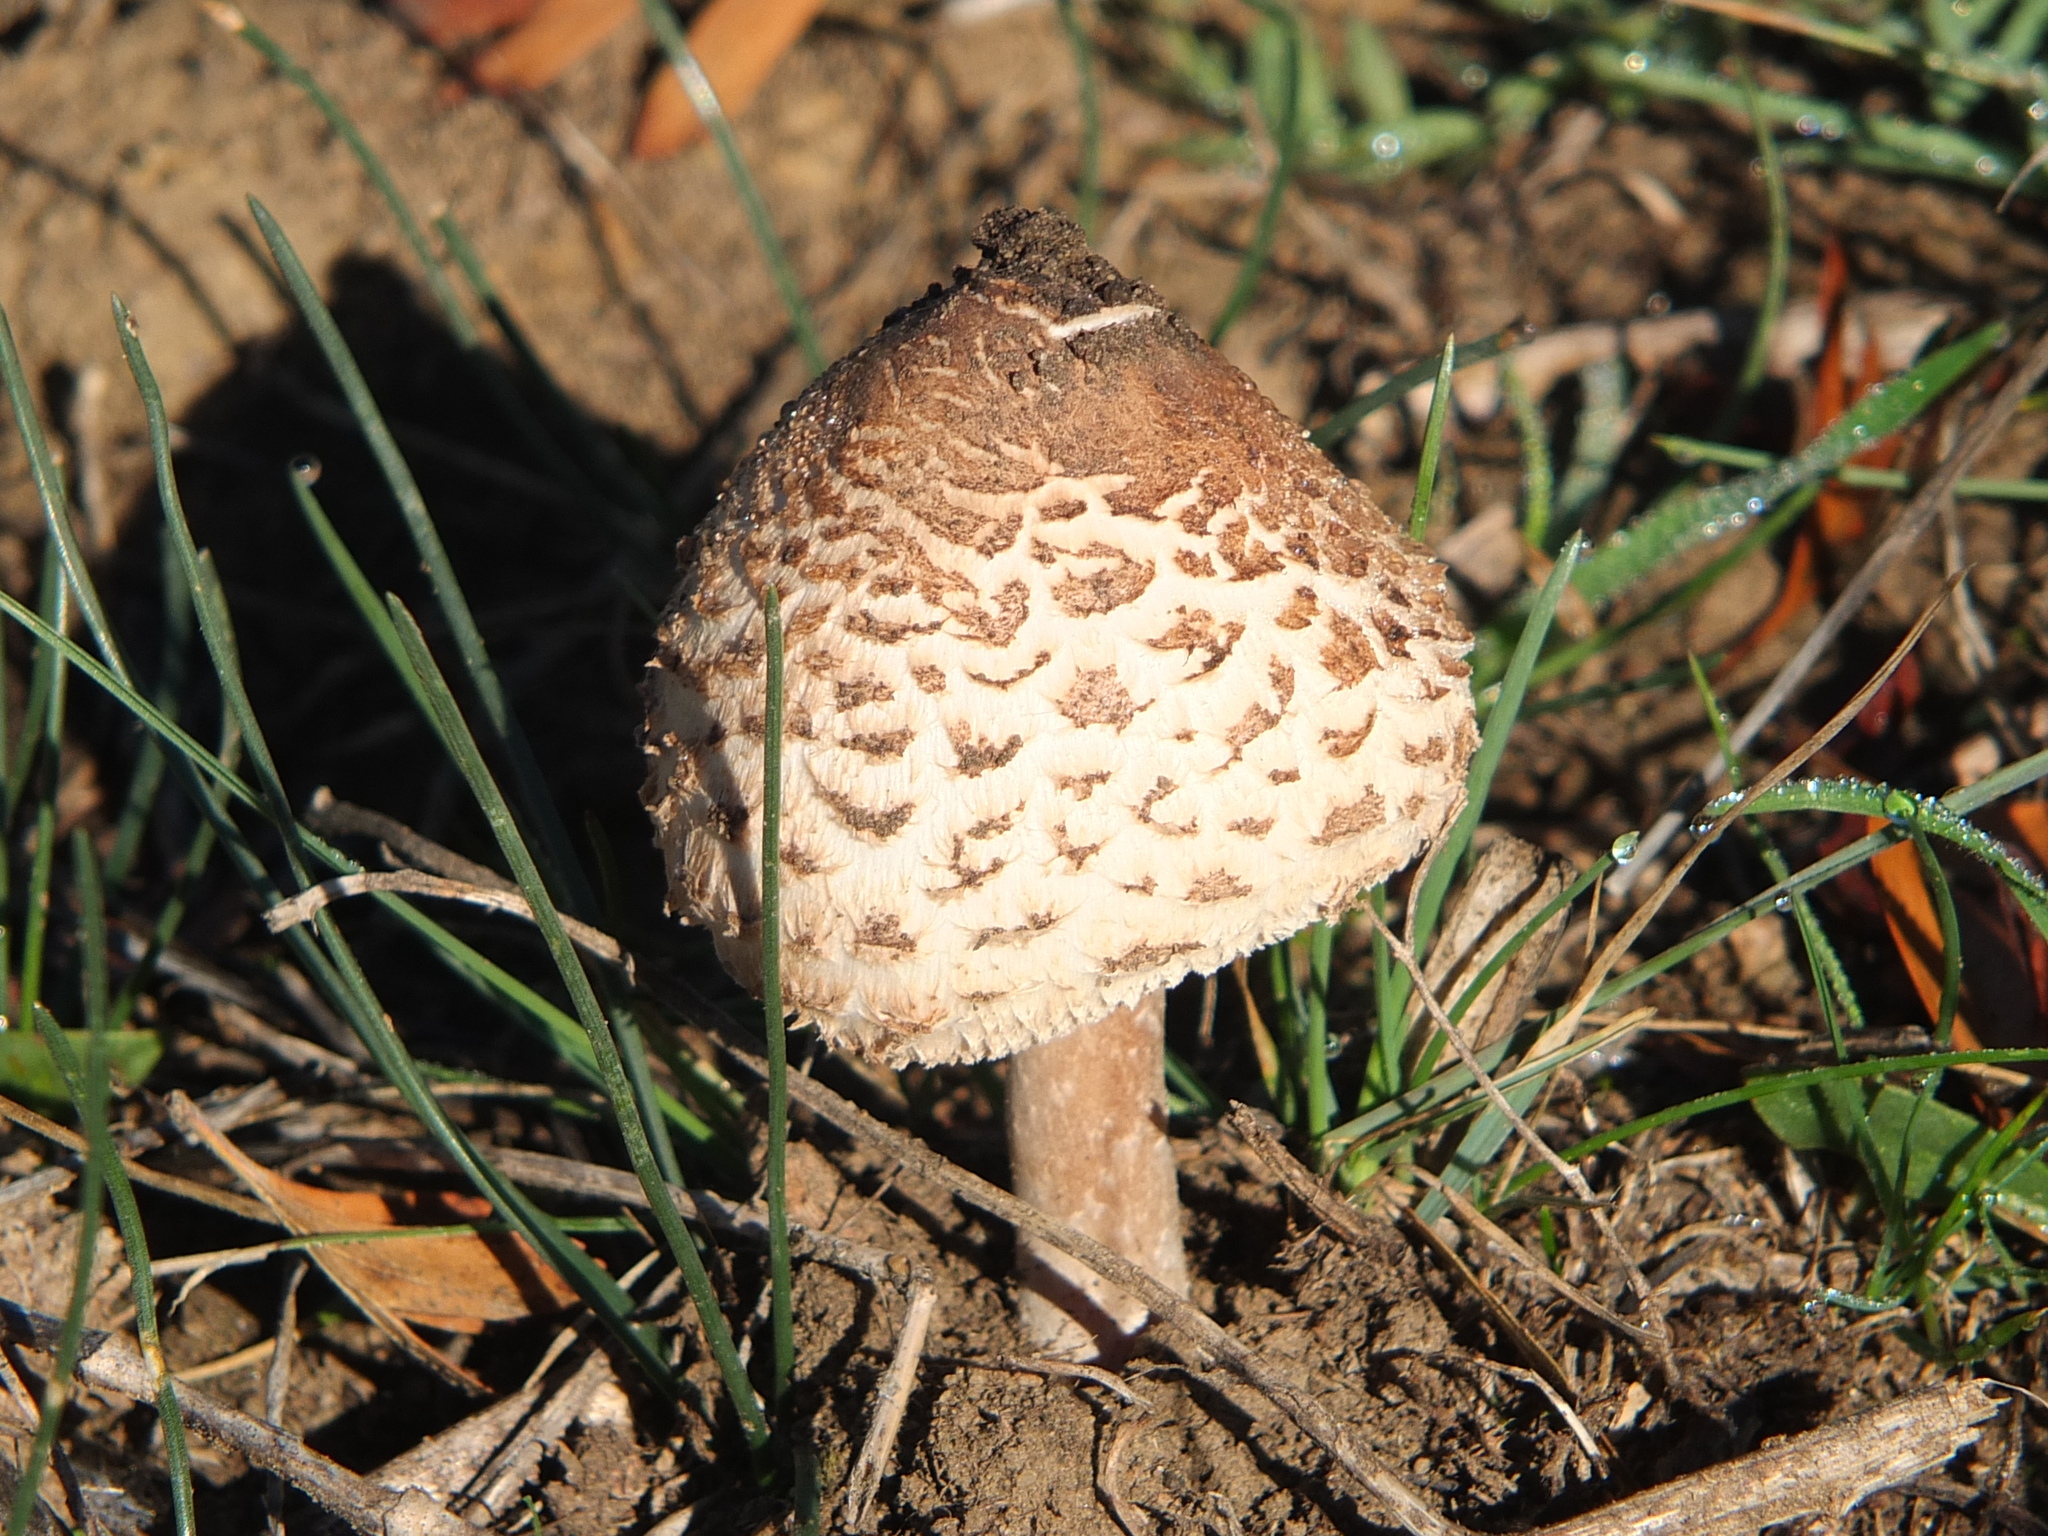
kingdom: Fungi
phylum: Basidiomycota
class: Agaricomycetes
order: Agaricales
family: Agaricaceae
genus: Macrolepiota
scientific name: Macrolepiota procera
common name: Parasol
